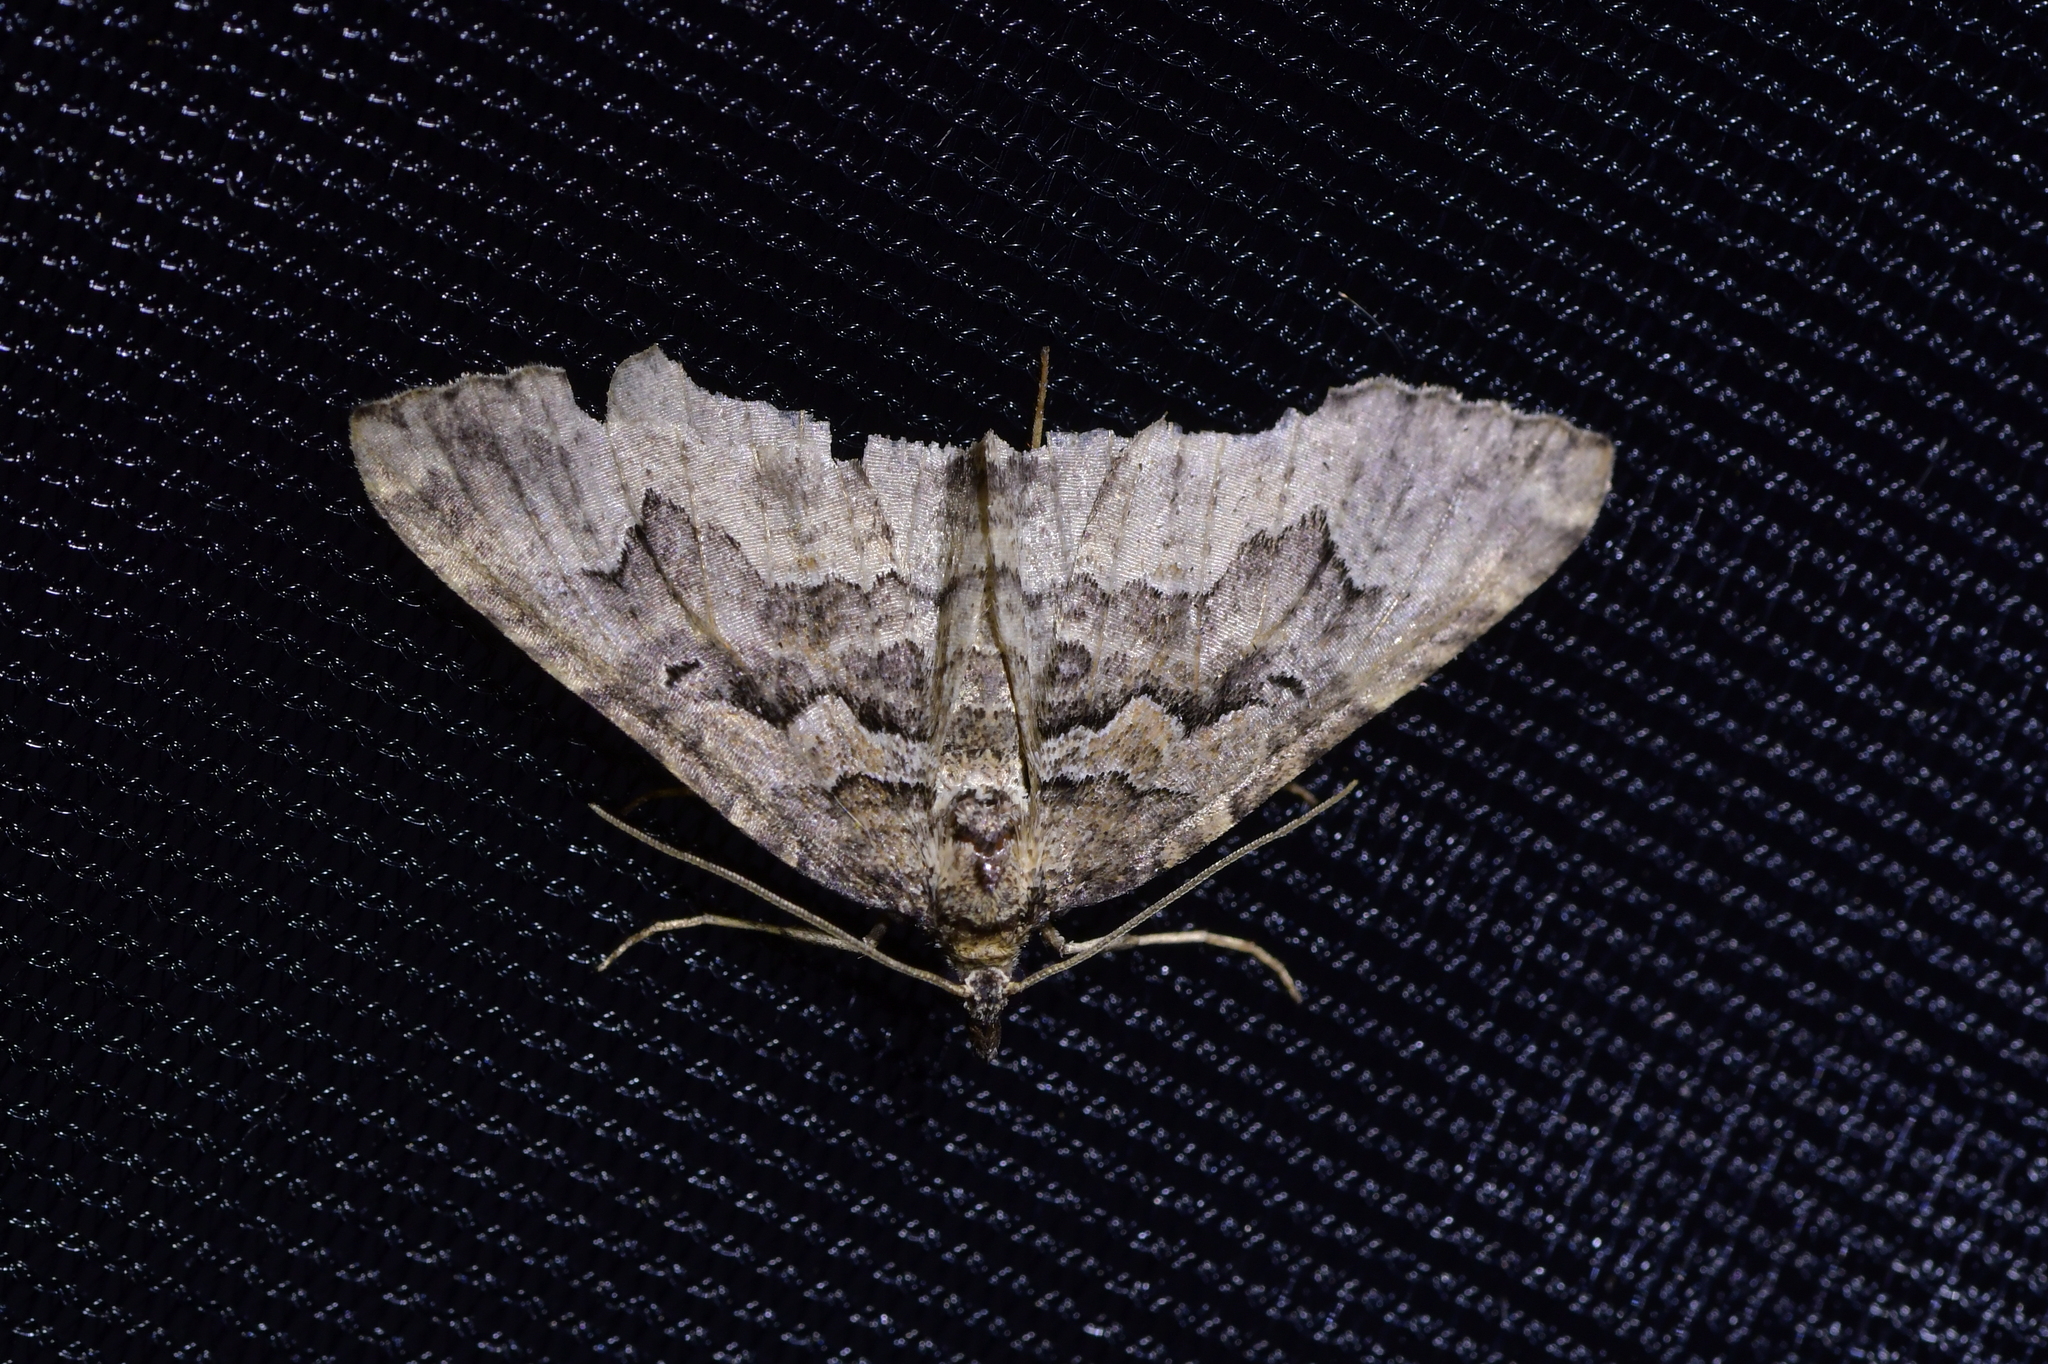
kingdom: Animalia
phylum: Arthropoda
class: Insecta
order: Lepidoptera
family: Geometridae
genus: Austrocidaria
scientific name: Austrocidaria lithurga
